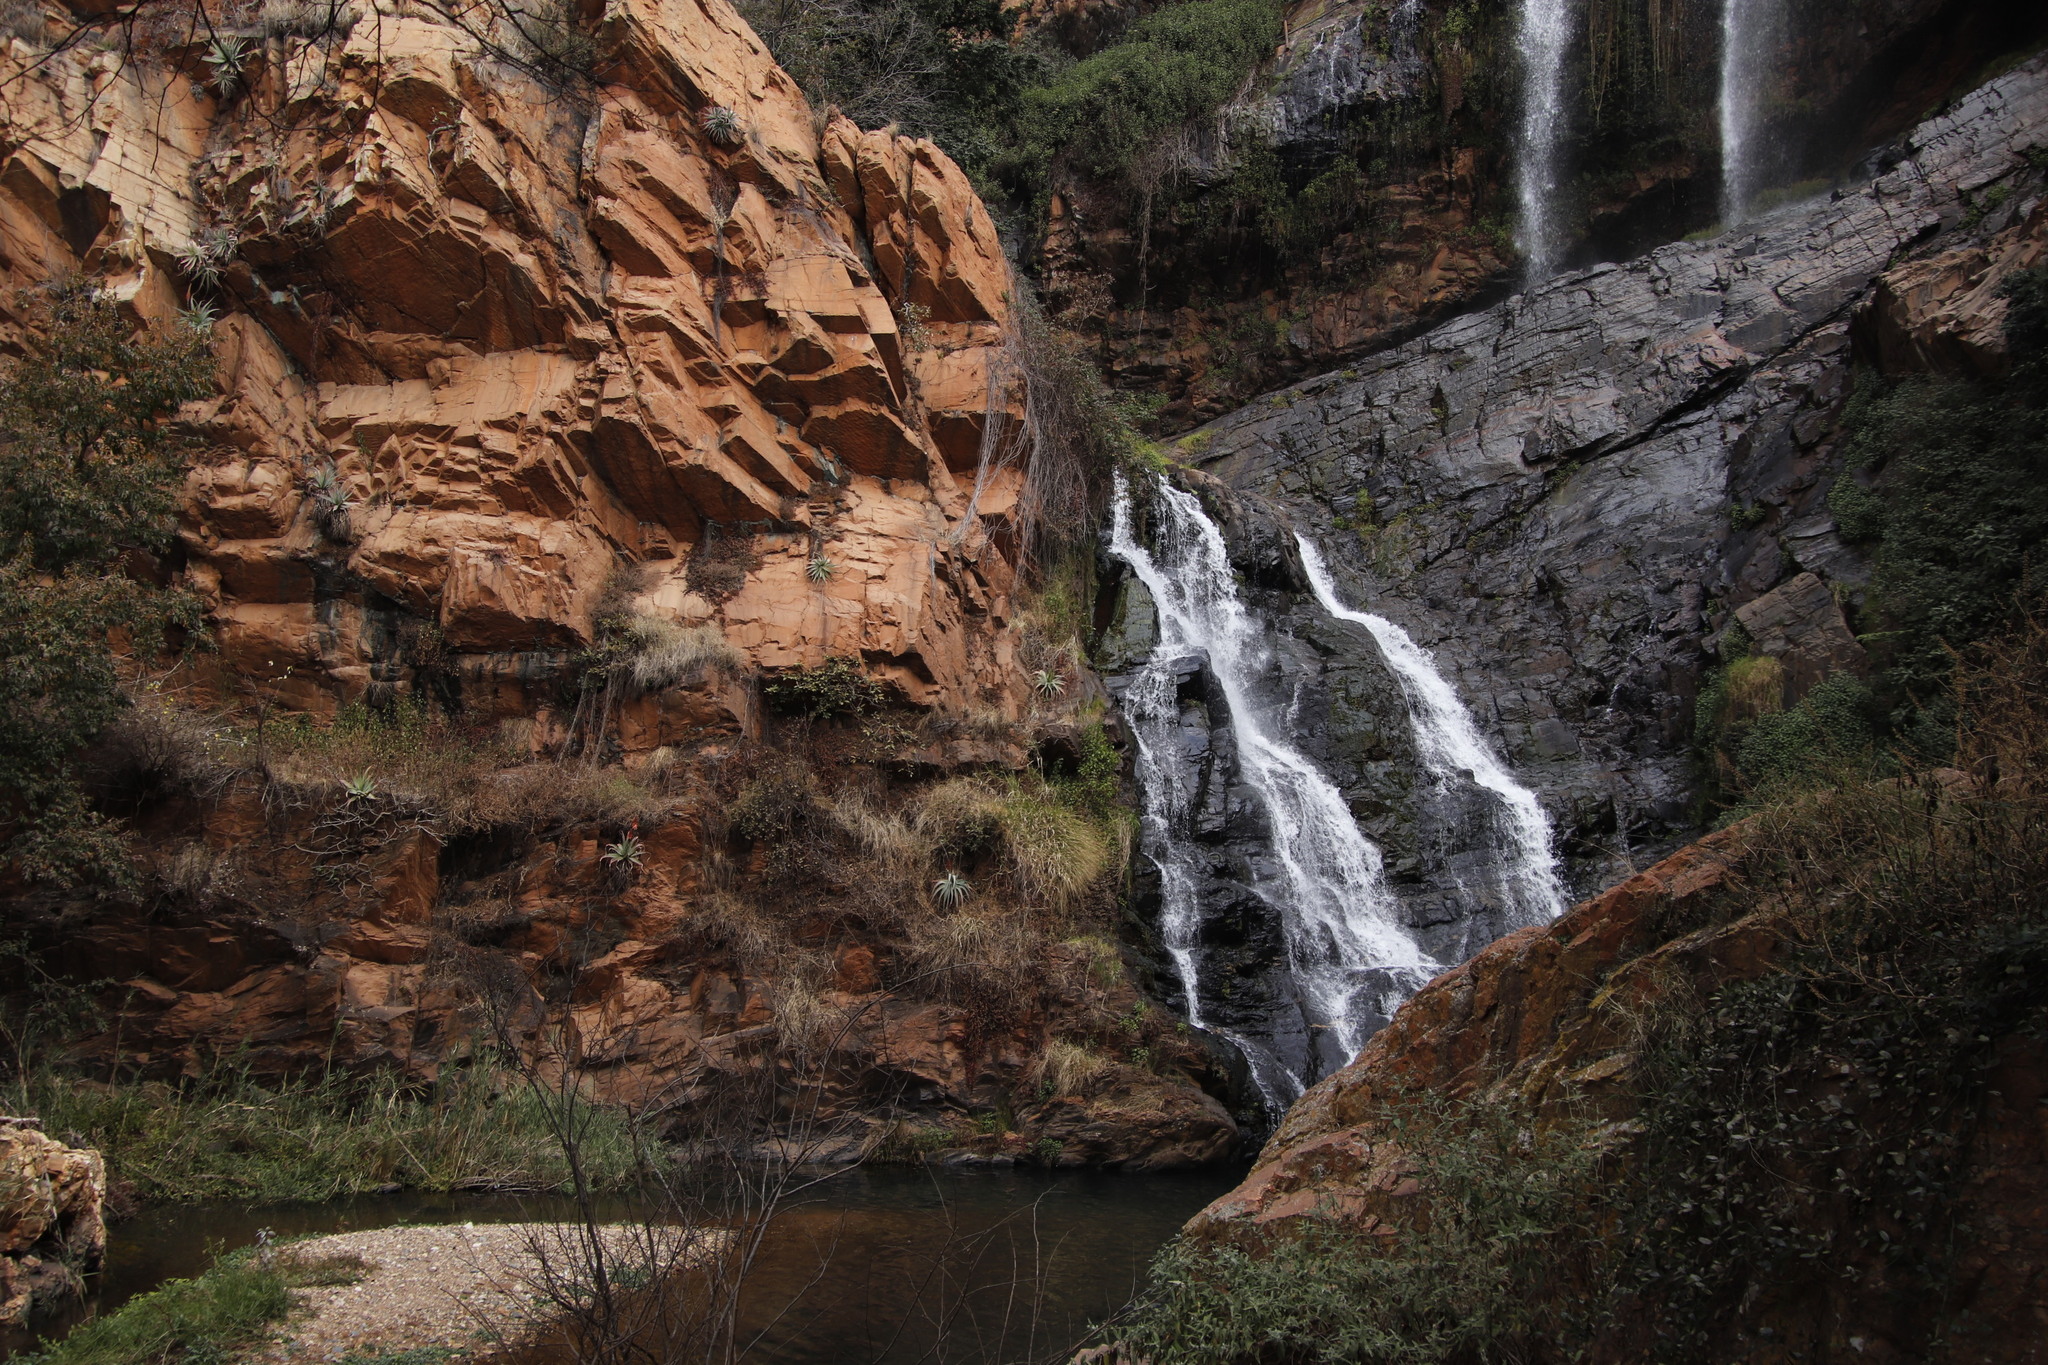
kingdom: Plantae
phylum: Tracheophyta
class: Magnoliopsida
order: Solanales
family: Solanaceae
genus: Solanum
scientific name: Solanum mauritianum
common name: Earleaf nightshade
